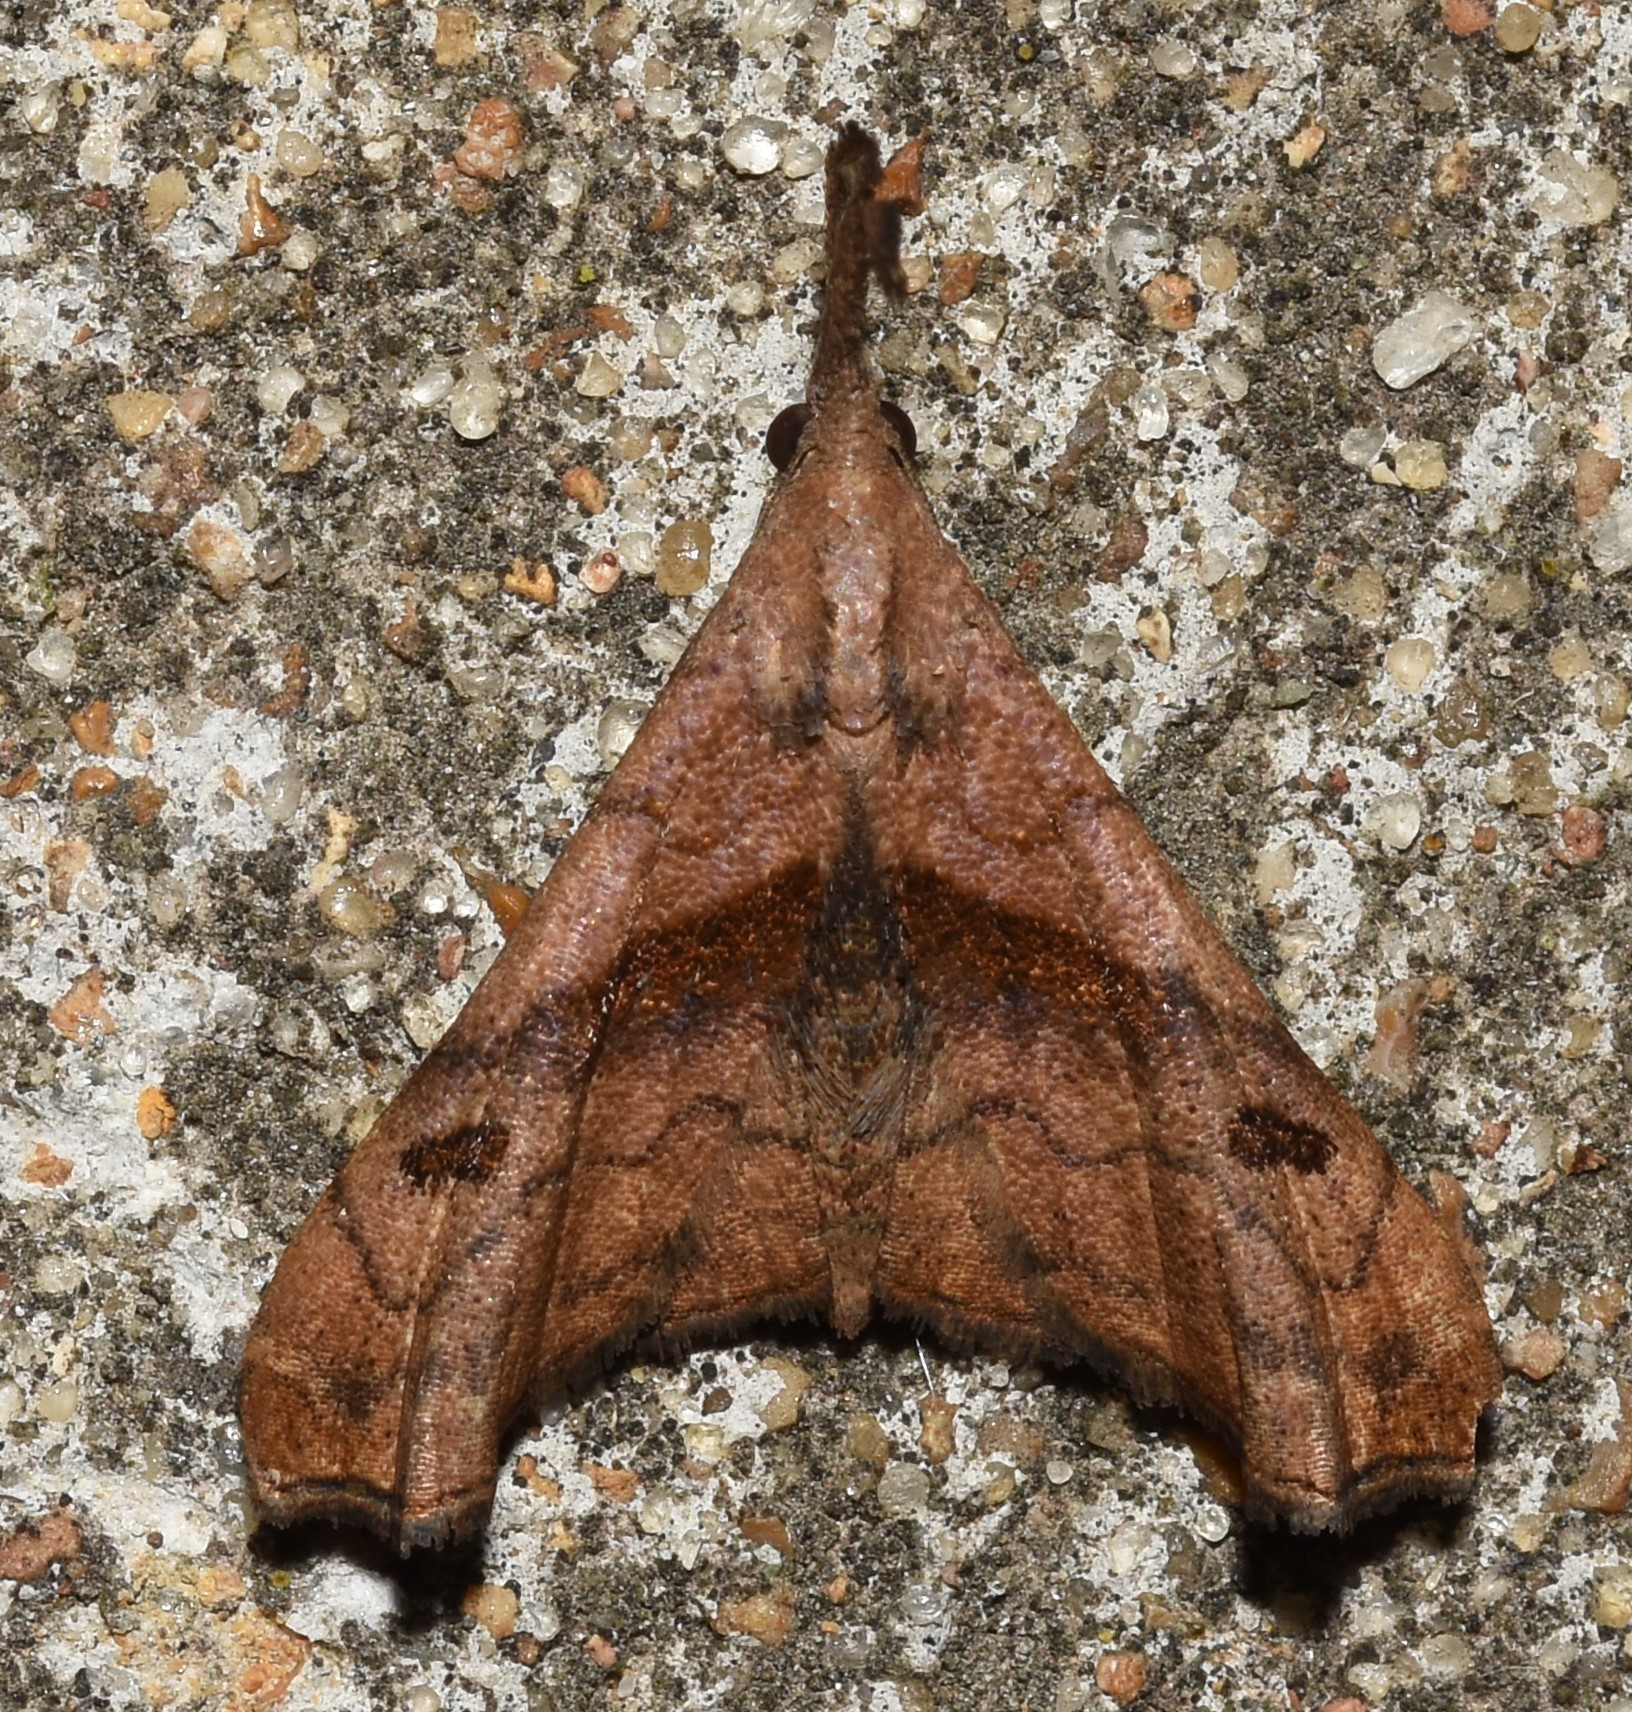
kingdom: Animalia
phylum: Arthropoda
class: Insecta
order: Lepidoptera
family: Erebidae
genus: Palthis
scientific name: Palthis angulalis
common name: Dark-spotted palthis moth
